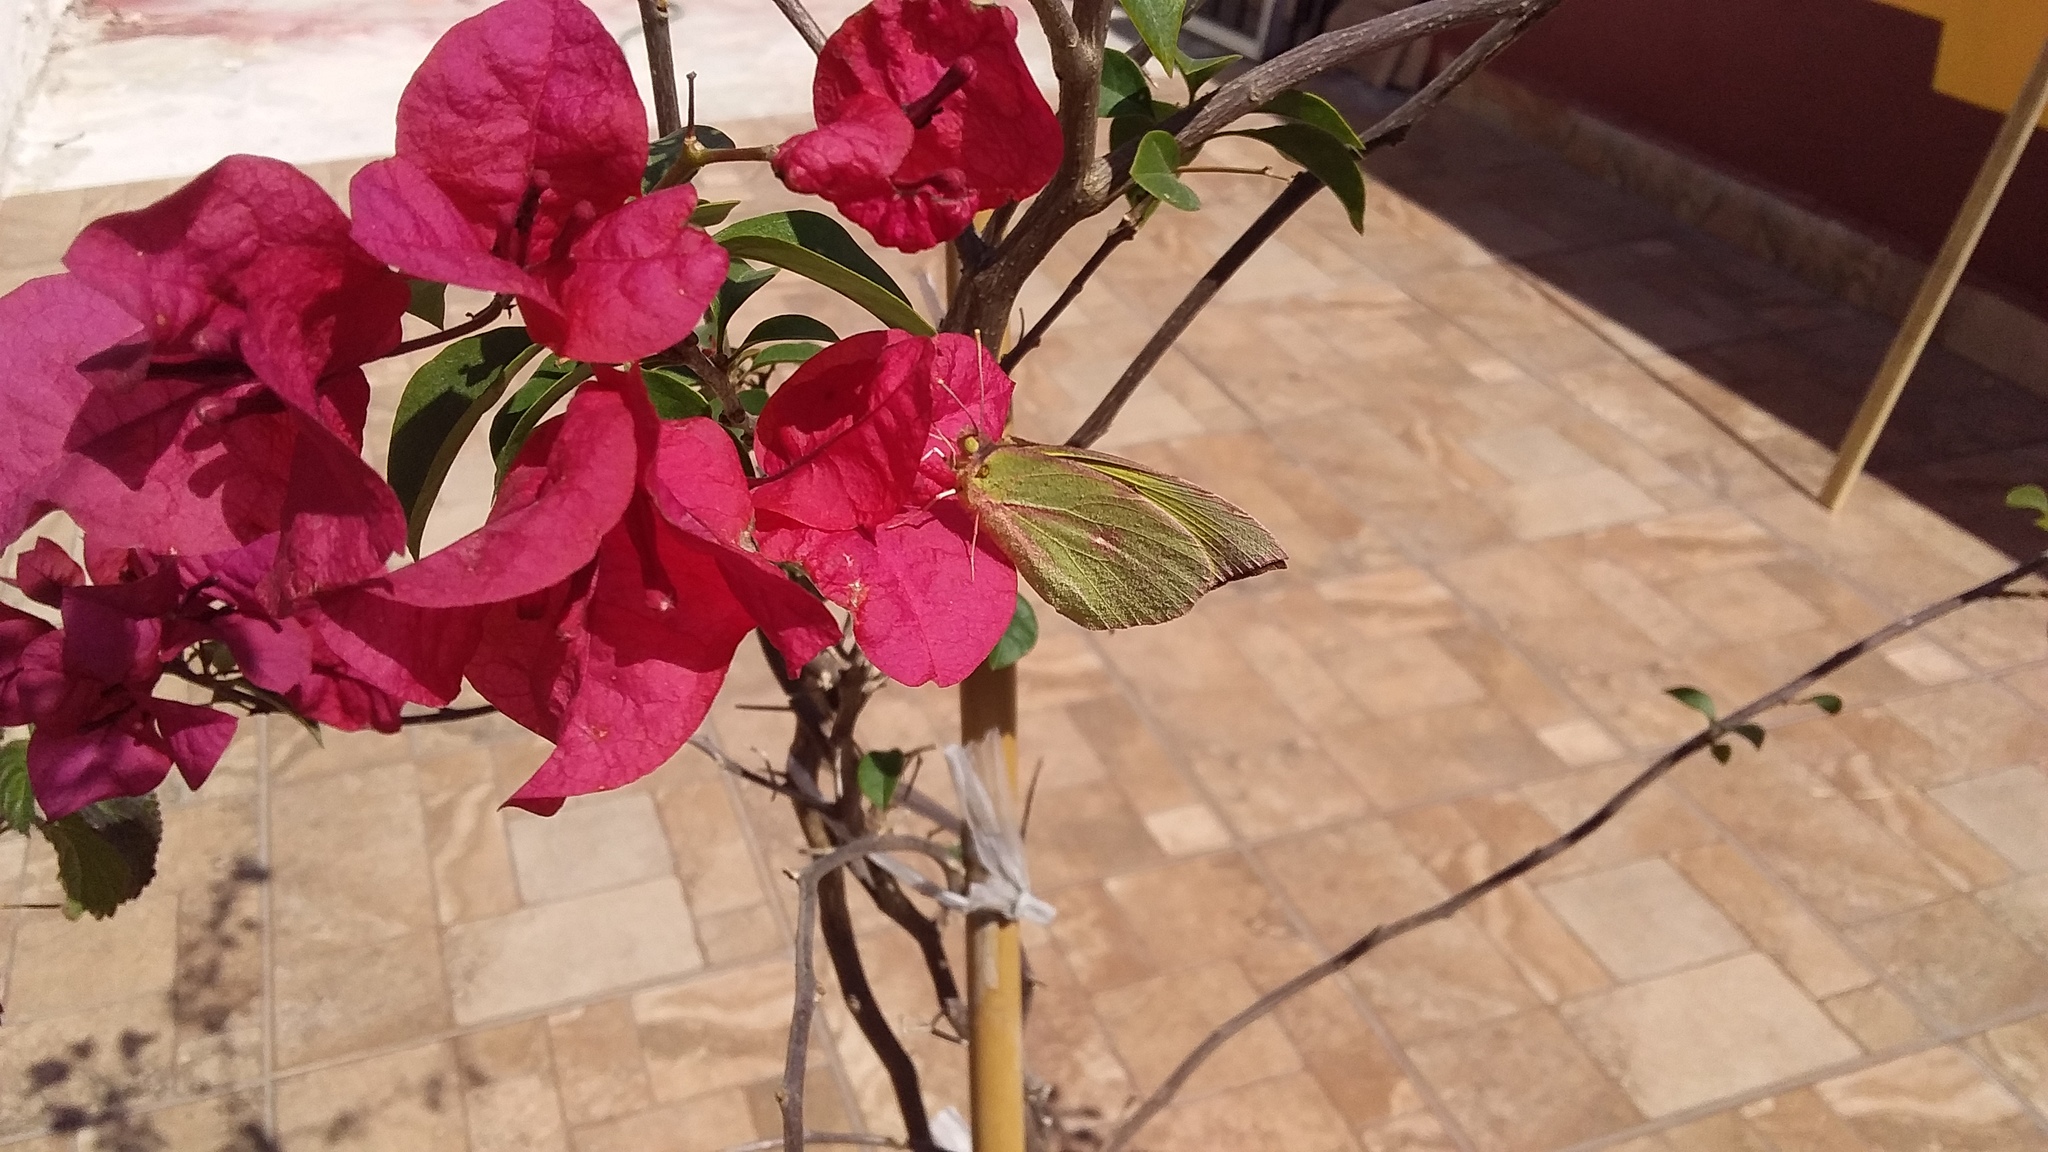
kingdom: Animalia
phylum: Arthropoda
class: Insecta
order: Lepidoptera
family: Pieridae
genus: Zerene
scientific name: Zerene cesonia
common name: Southern dogface
